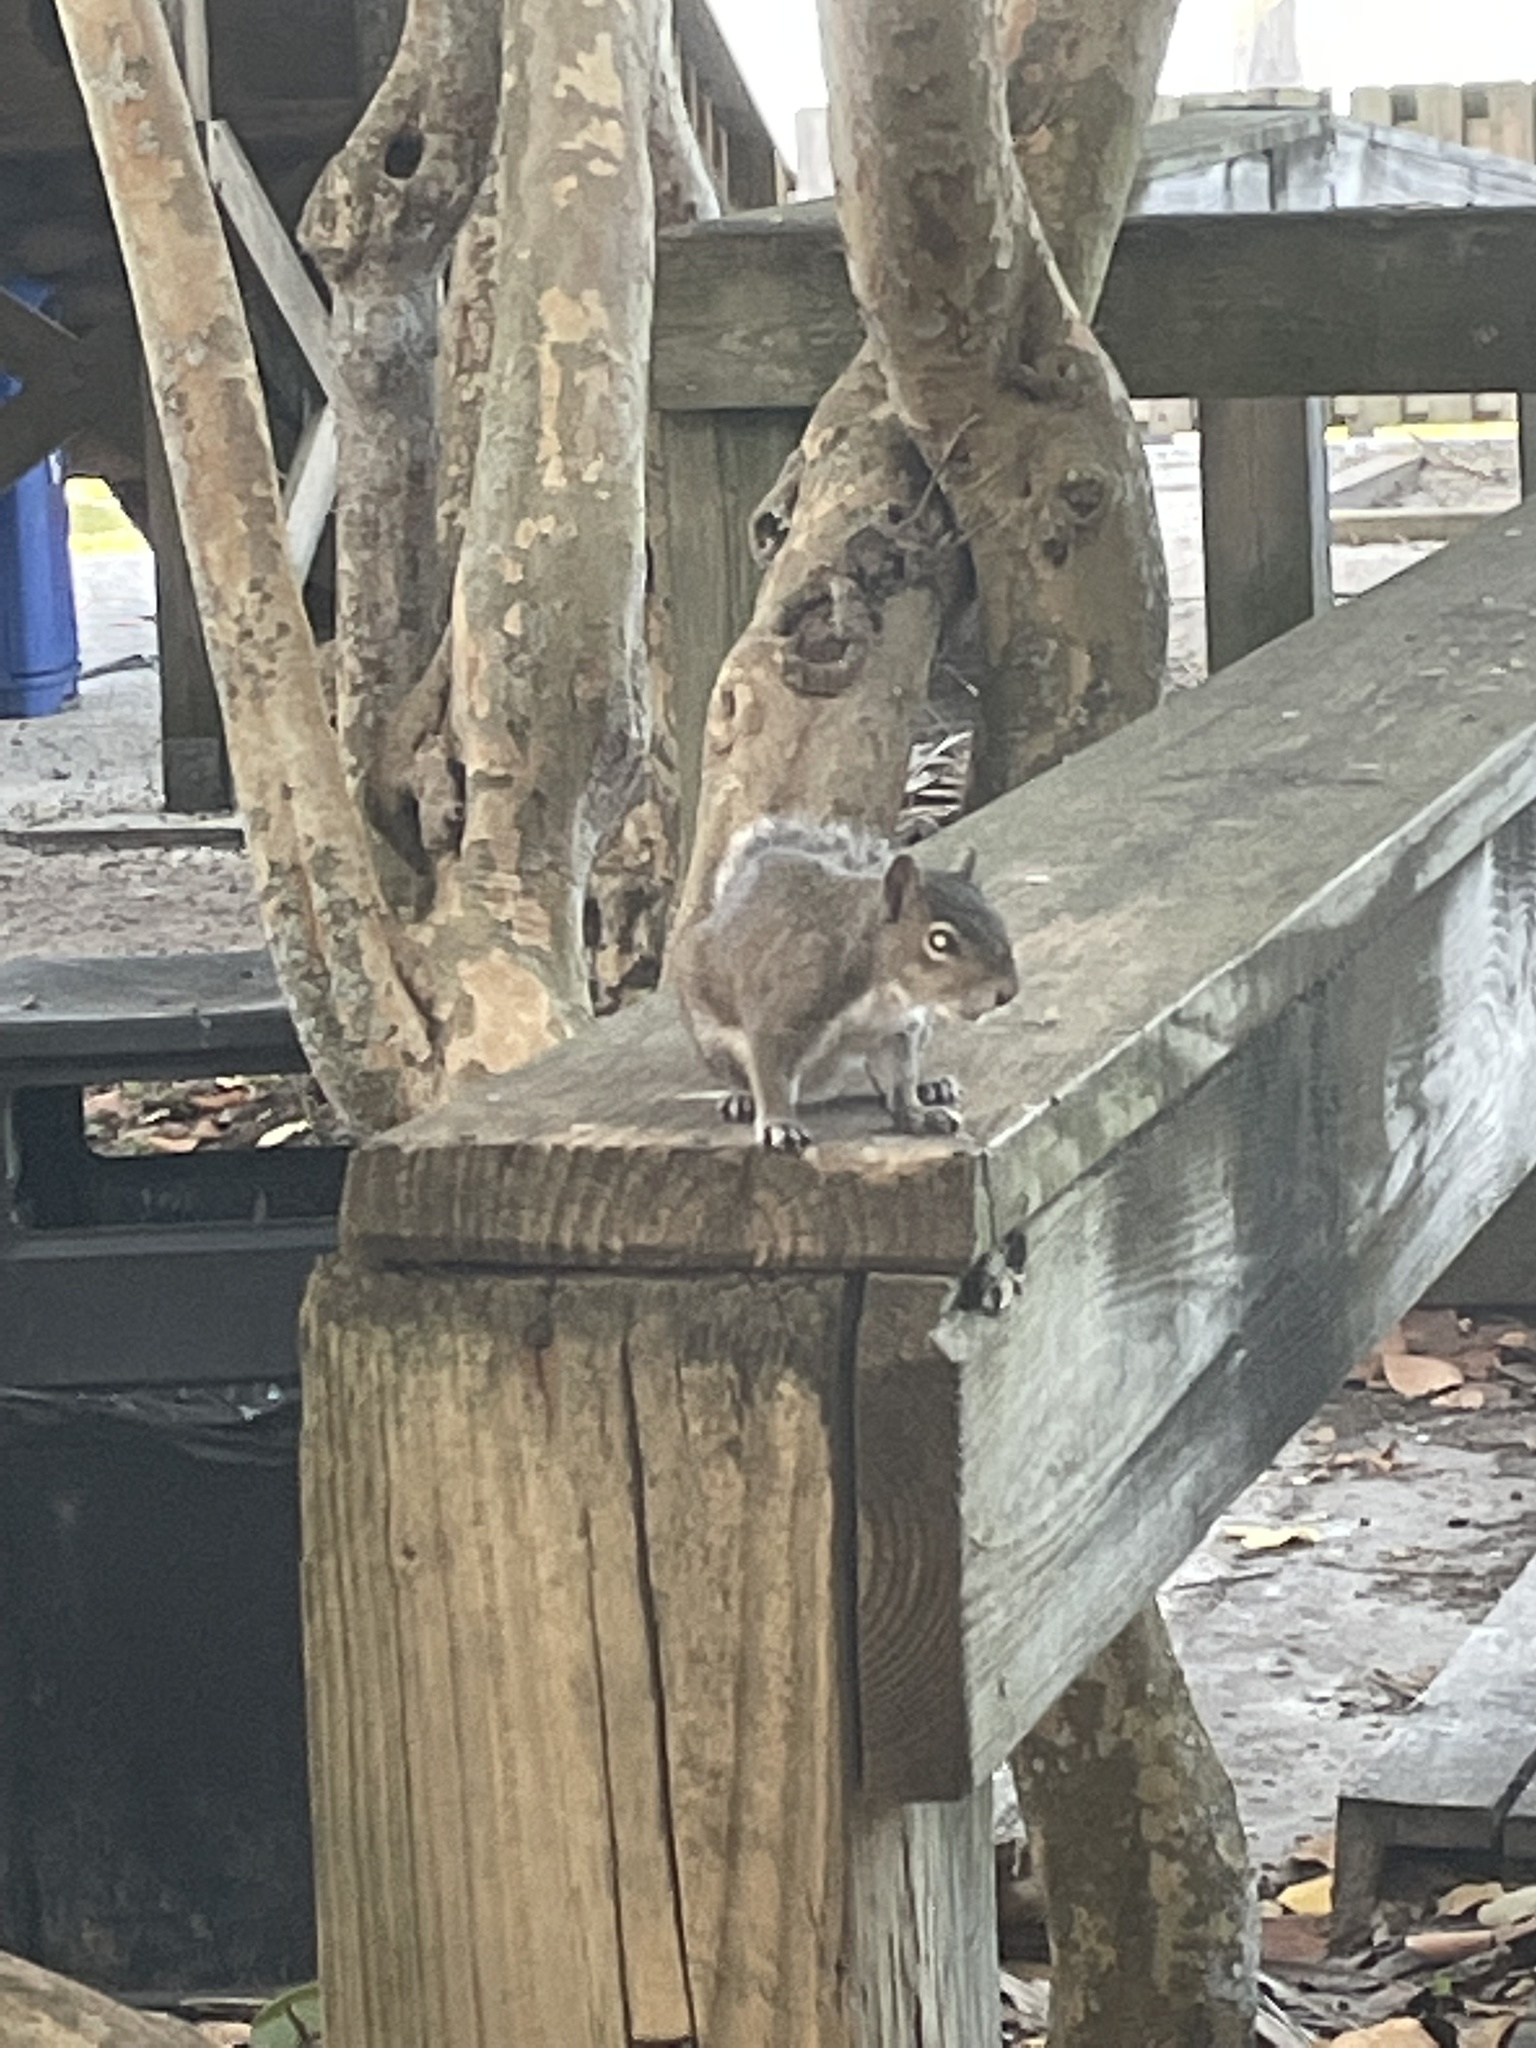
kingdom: Animalia
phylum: Chordata
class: Mammalia
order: Rodentia
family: Sciuridae
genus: Sciurus
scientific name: Sciurus carolinensis
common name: Eastern gray squirrel
